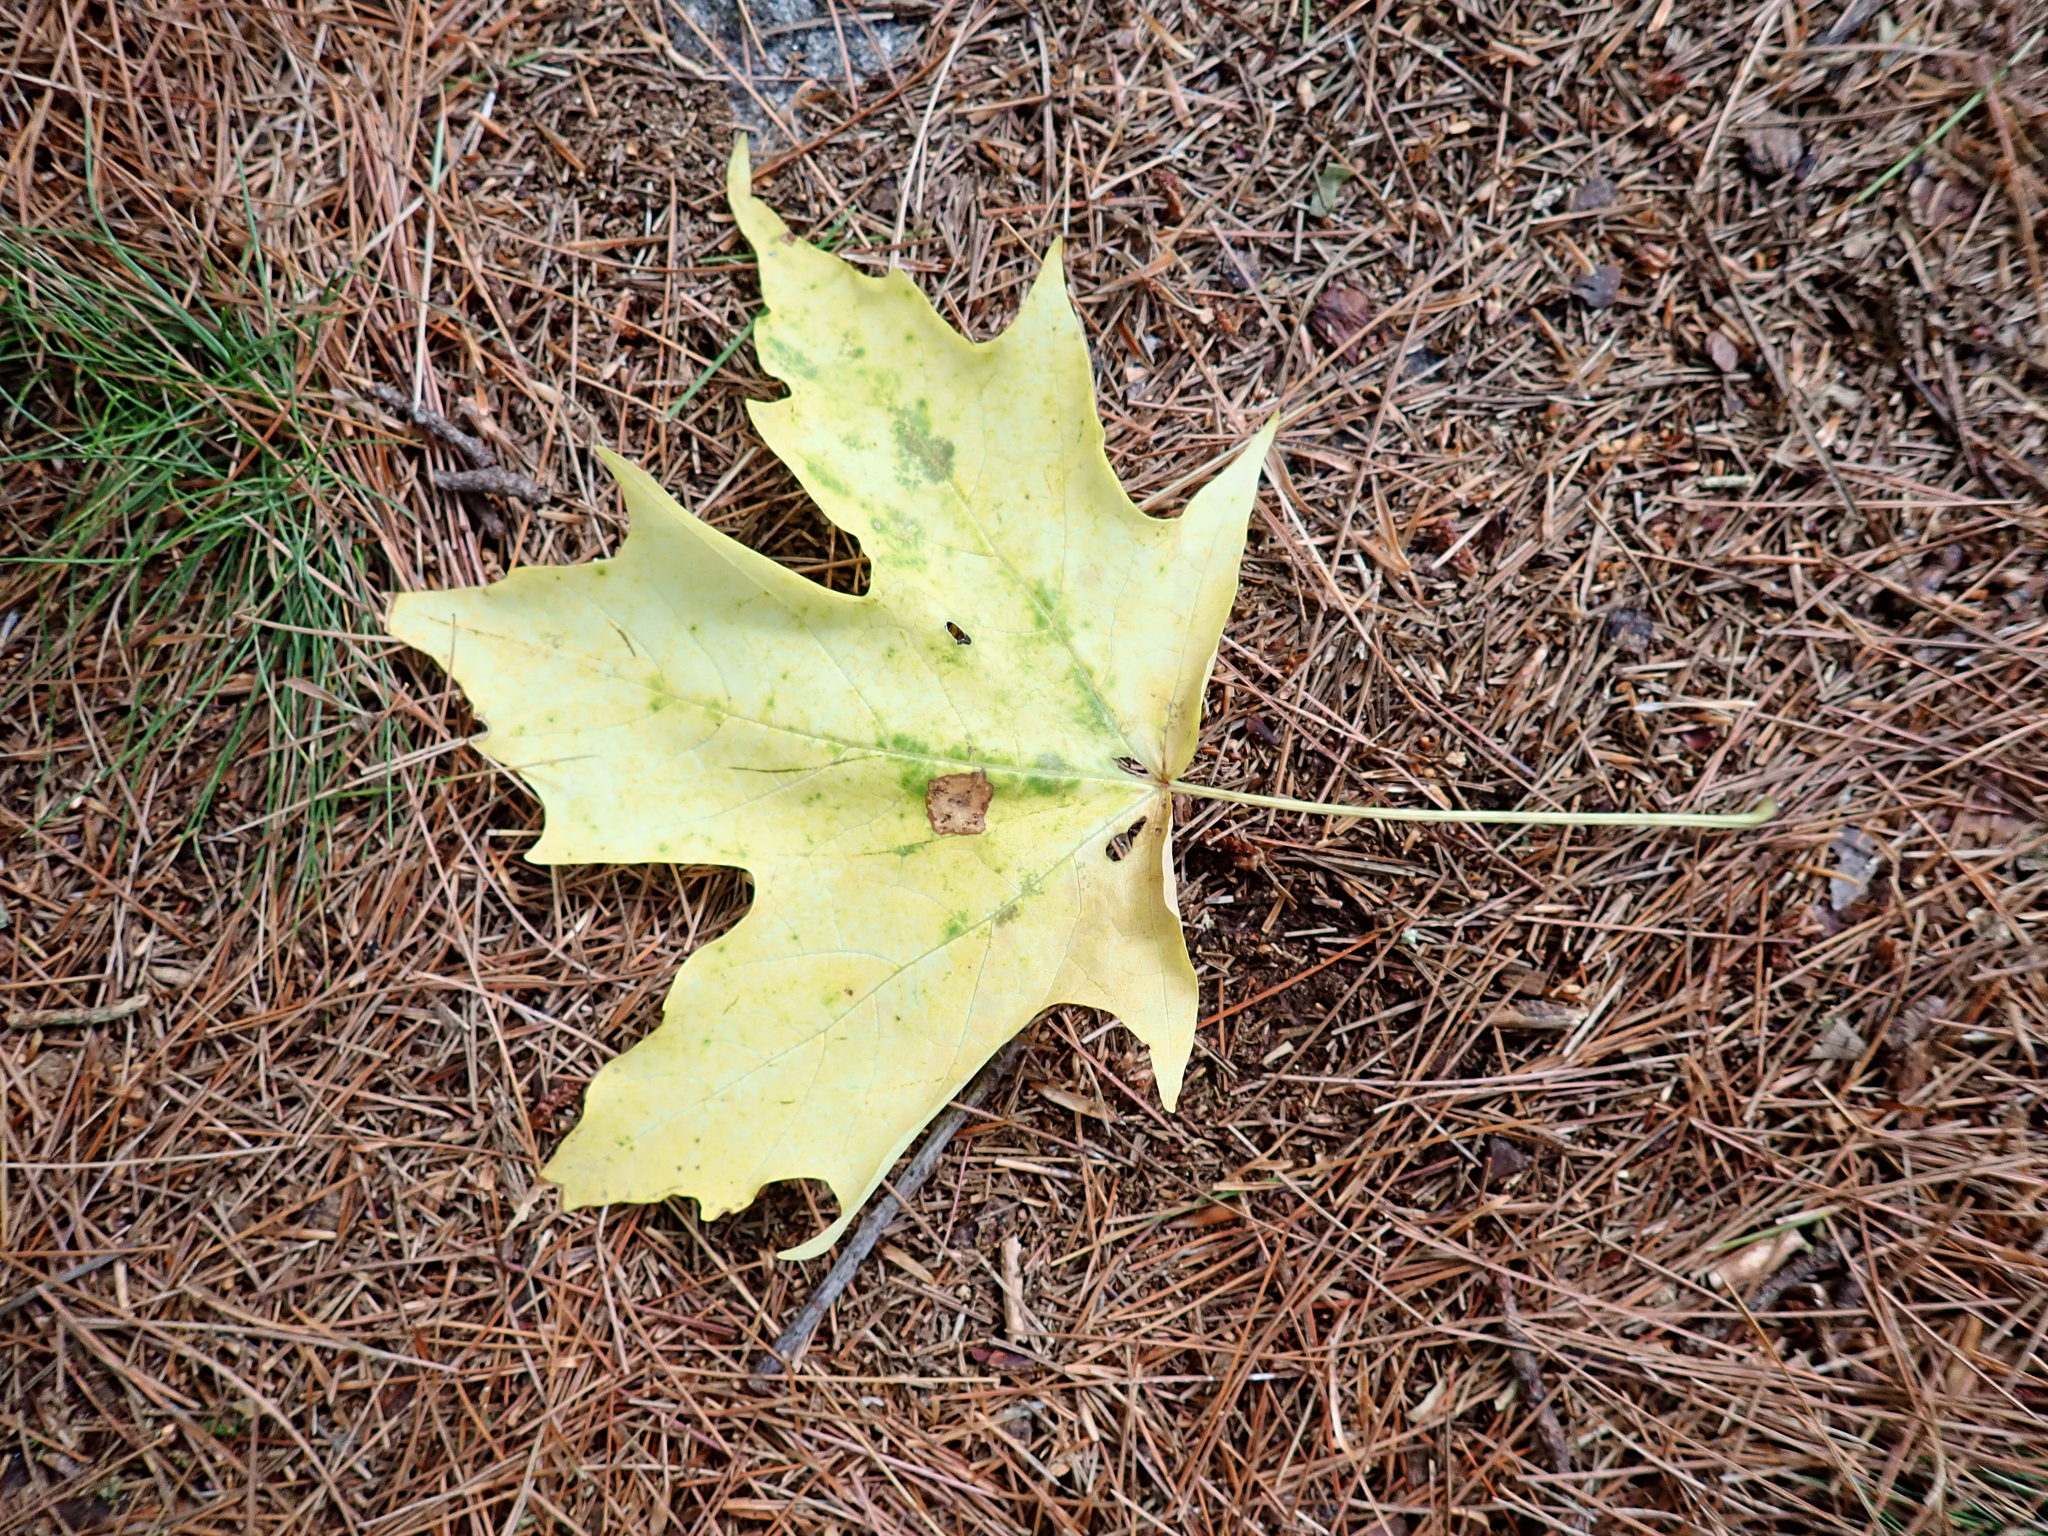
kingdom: Plantae
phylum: Tracheophyta
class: Magnoliopsida
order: Sapindales
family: Sapindaceae
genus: Acer
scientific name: Acer saccharum
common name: Sugar maple
